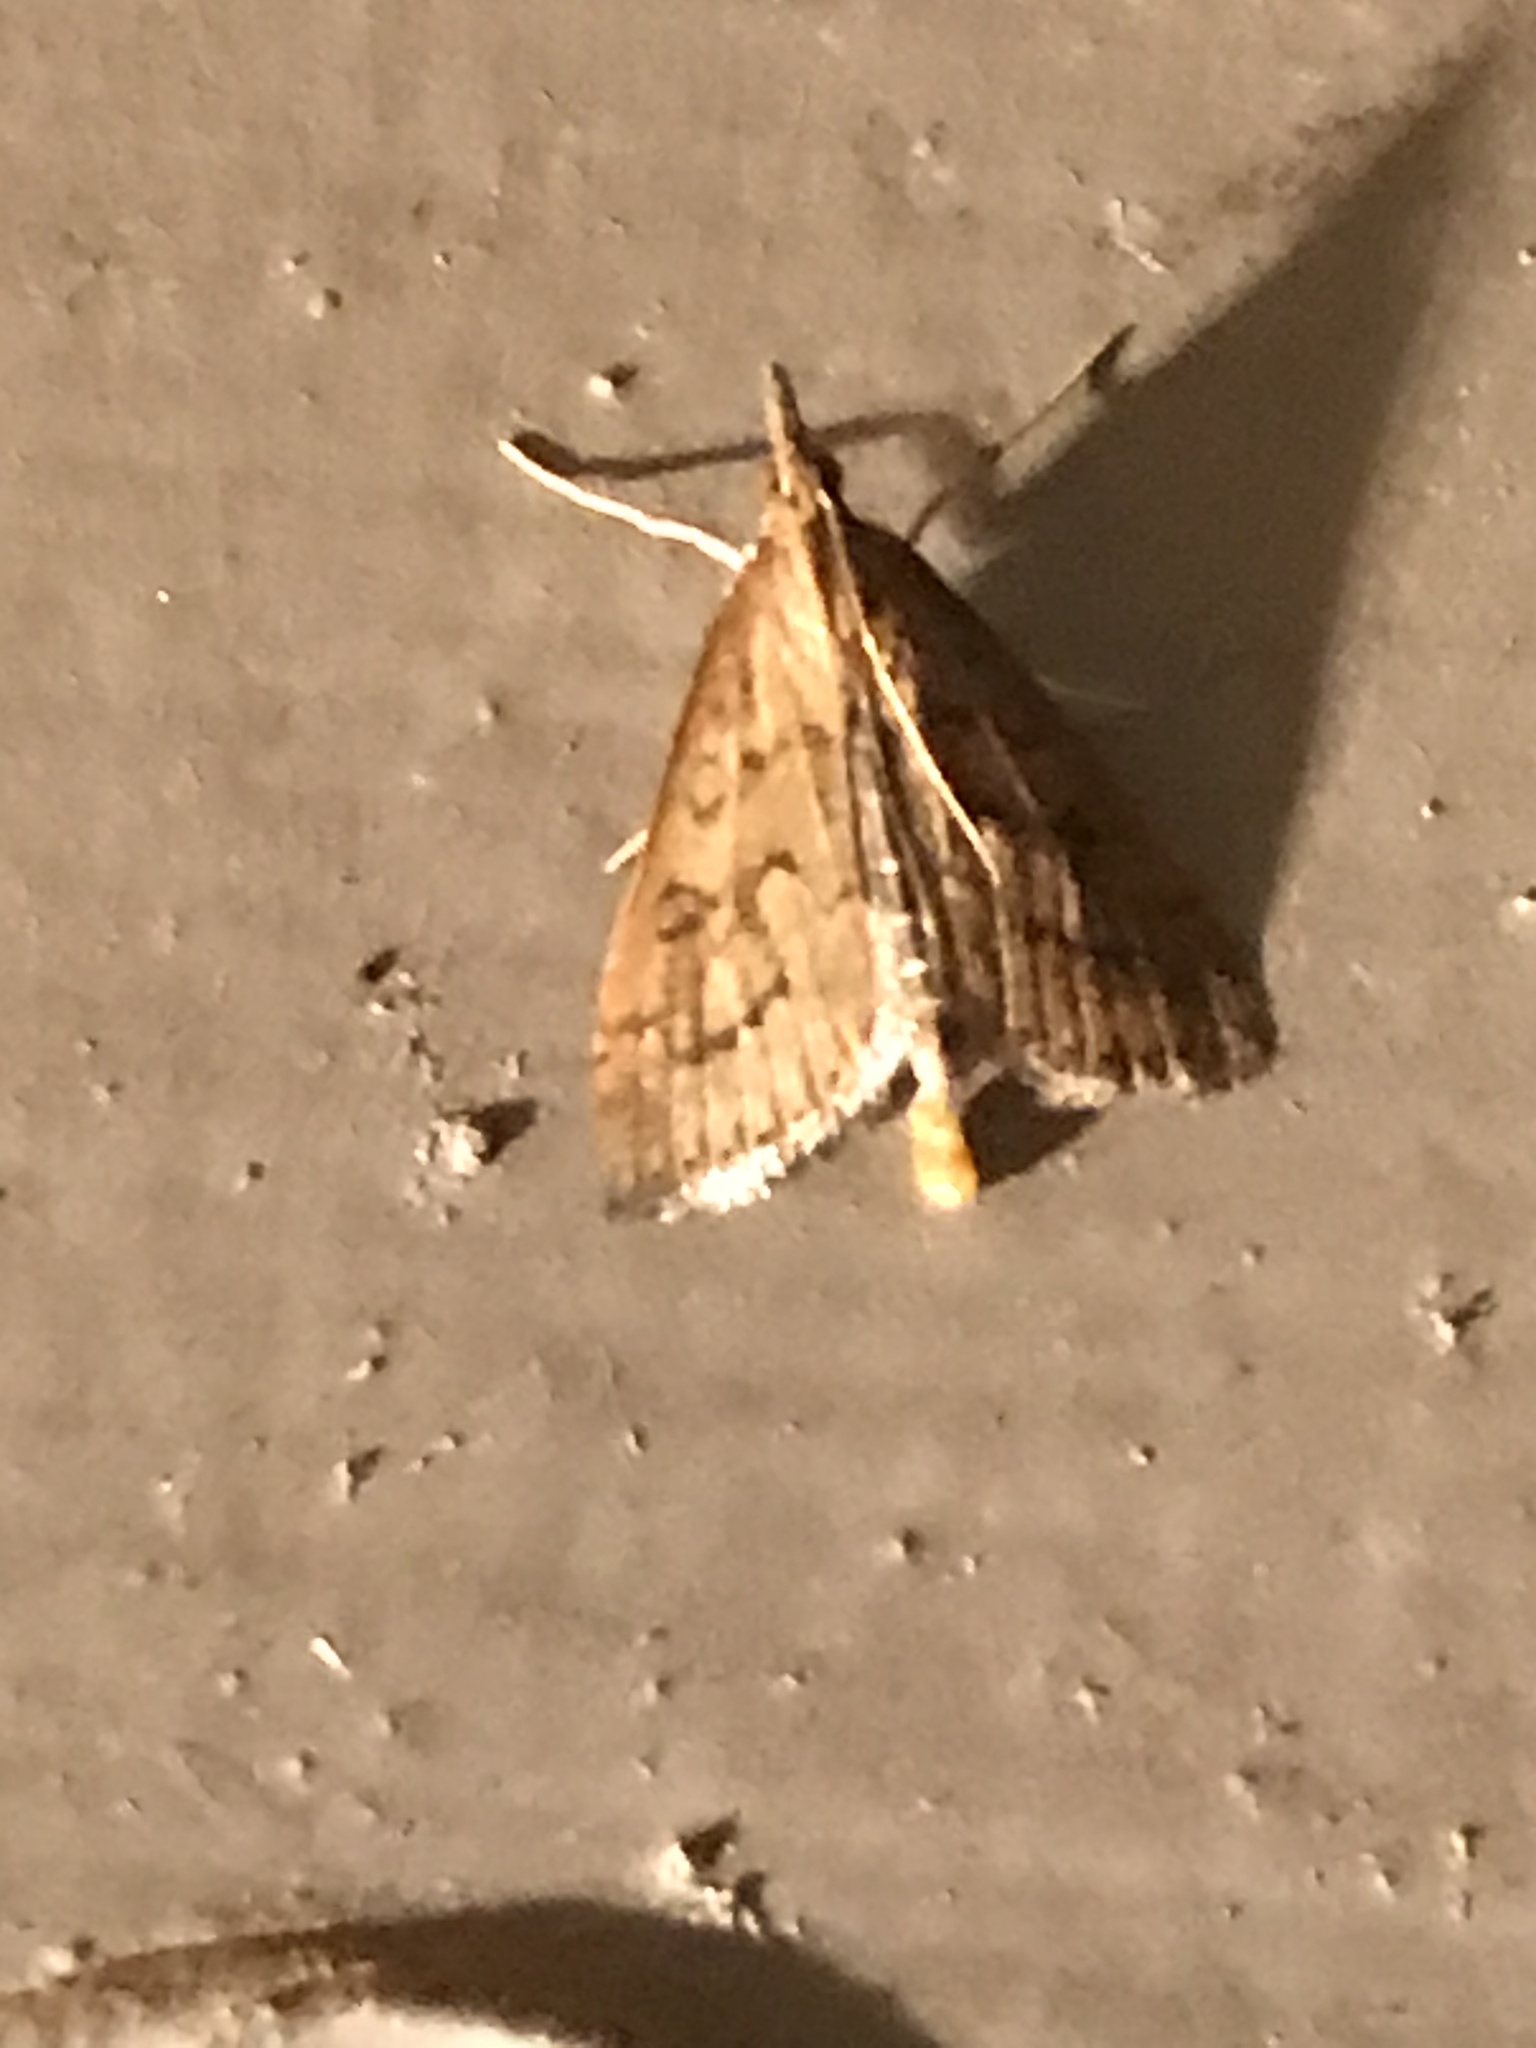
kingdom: Animalia
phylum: Arthropoda
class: Insecta
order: Lepidoptera
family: Crambidae
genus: Udea
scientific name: Udea rubigalis
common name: Celery leaftier moth
